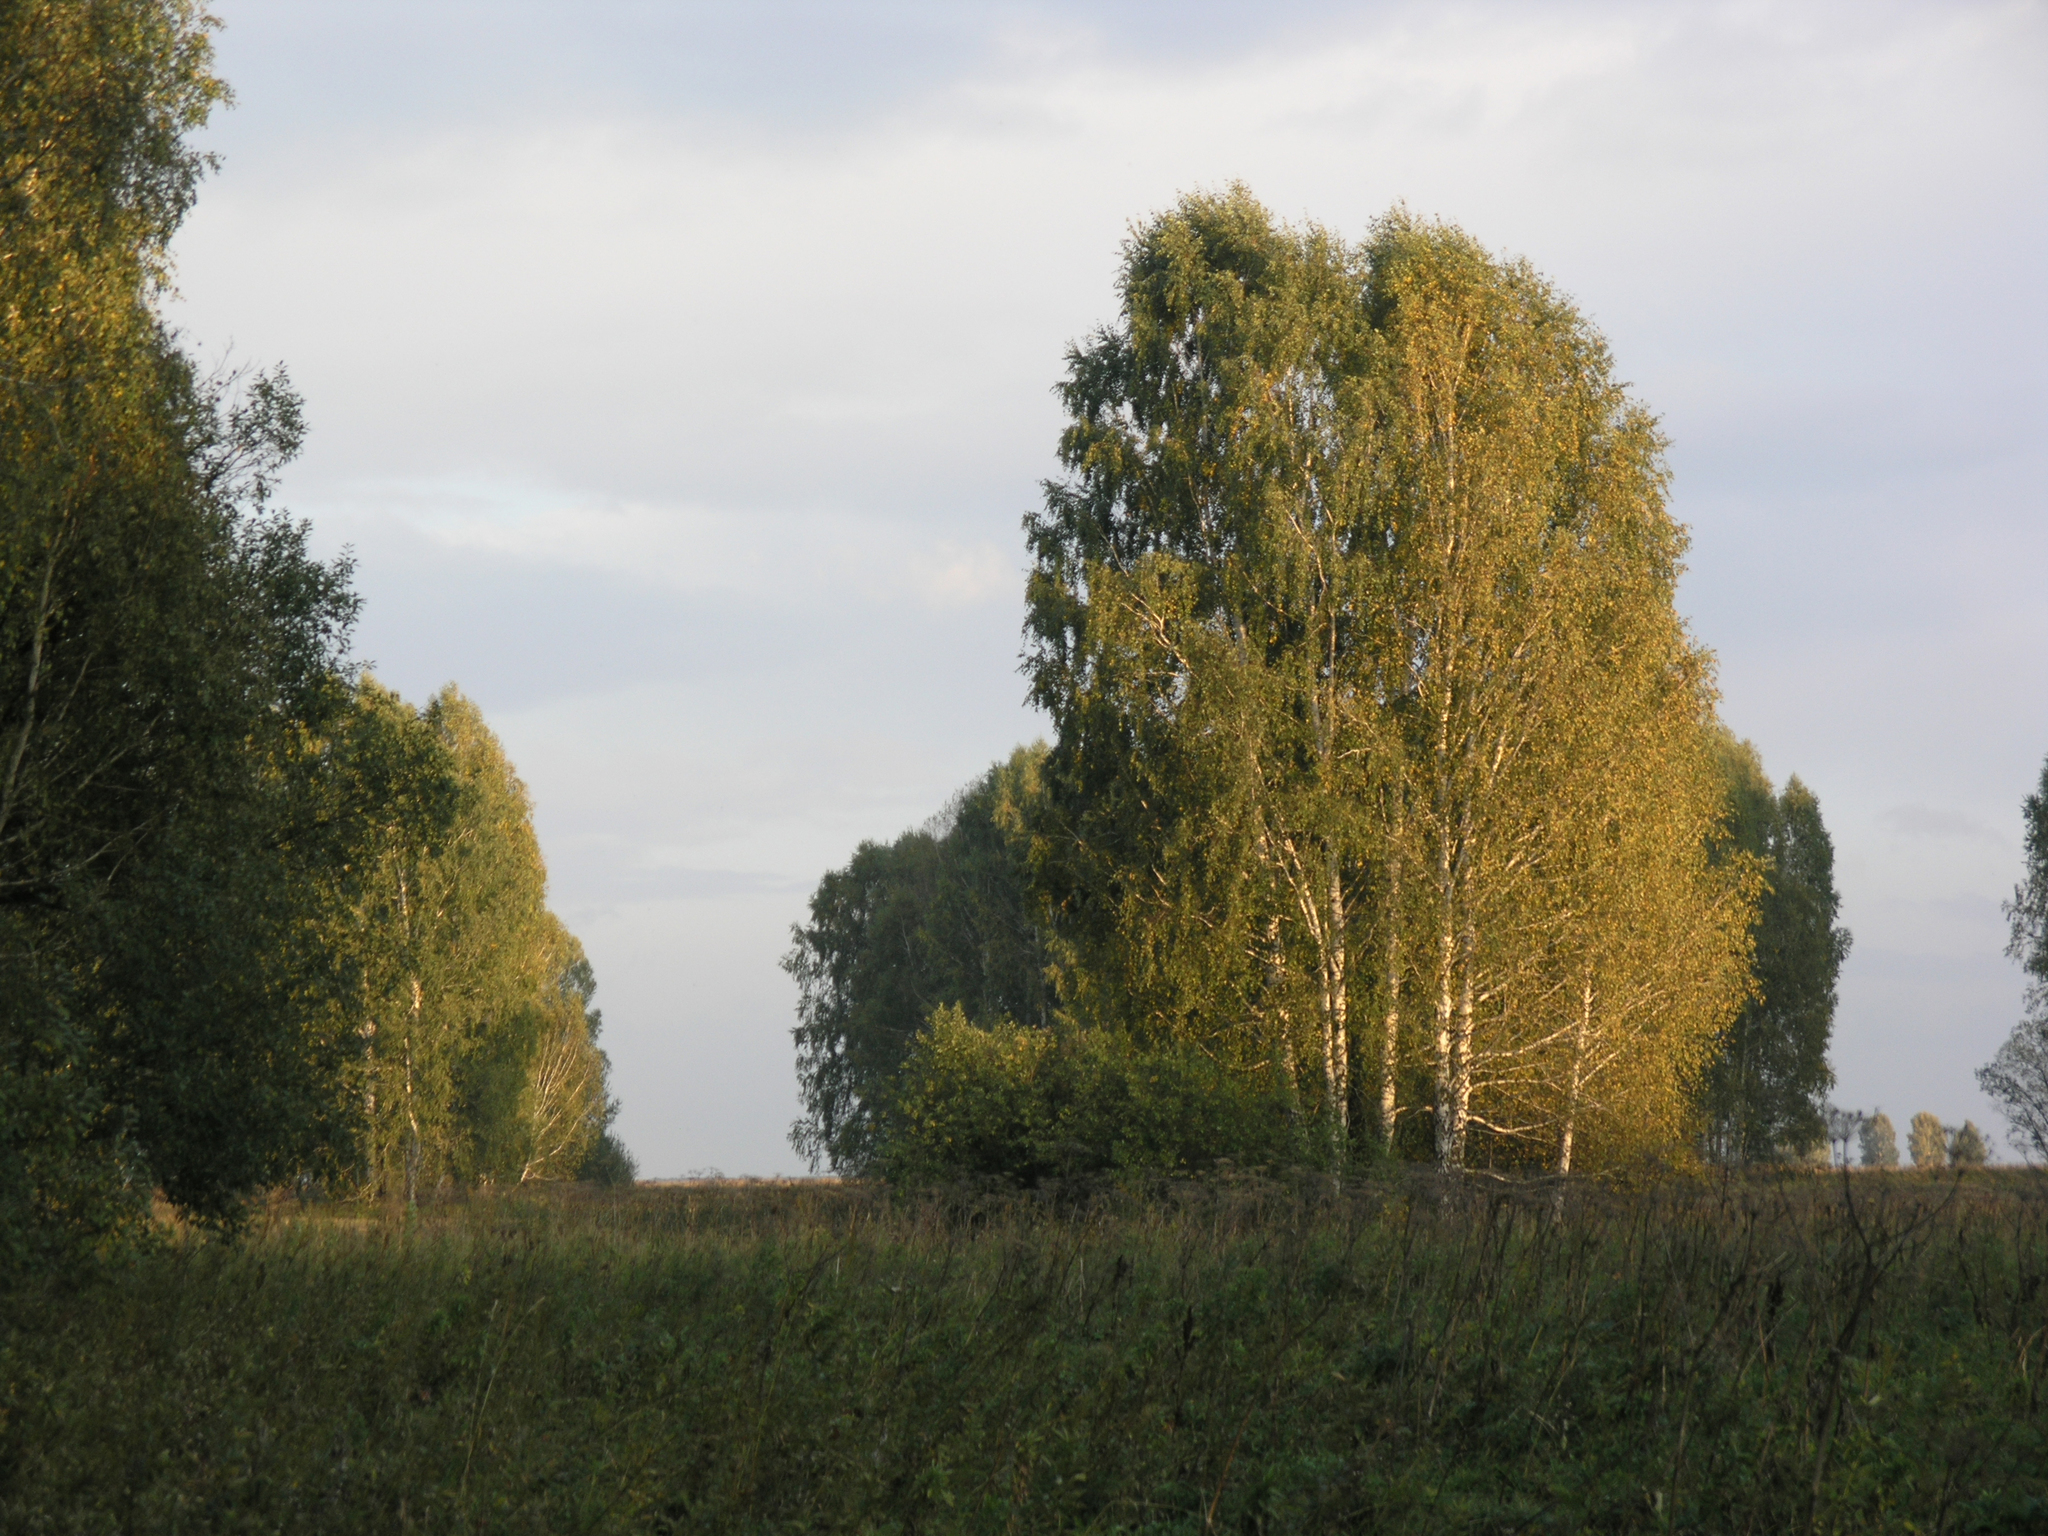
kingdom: Plantae
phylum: Tracheophyta
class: Magnoliopsida
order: Fagales
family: Betulaceae
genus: Betula
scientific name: Betula pendula
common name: Silver birch
